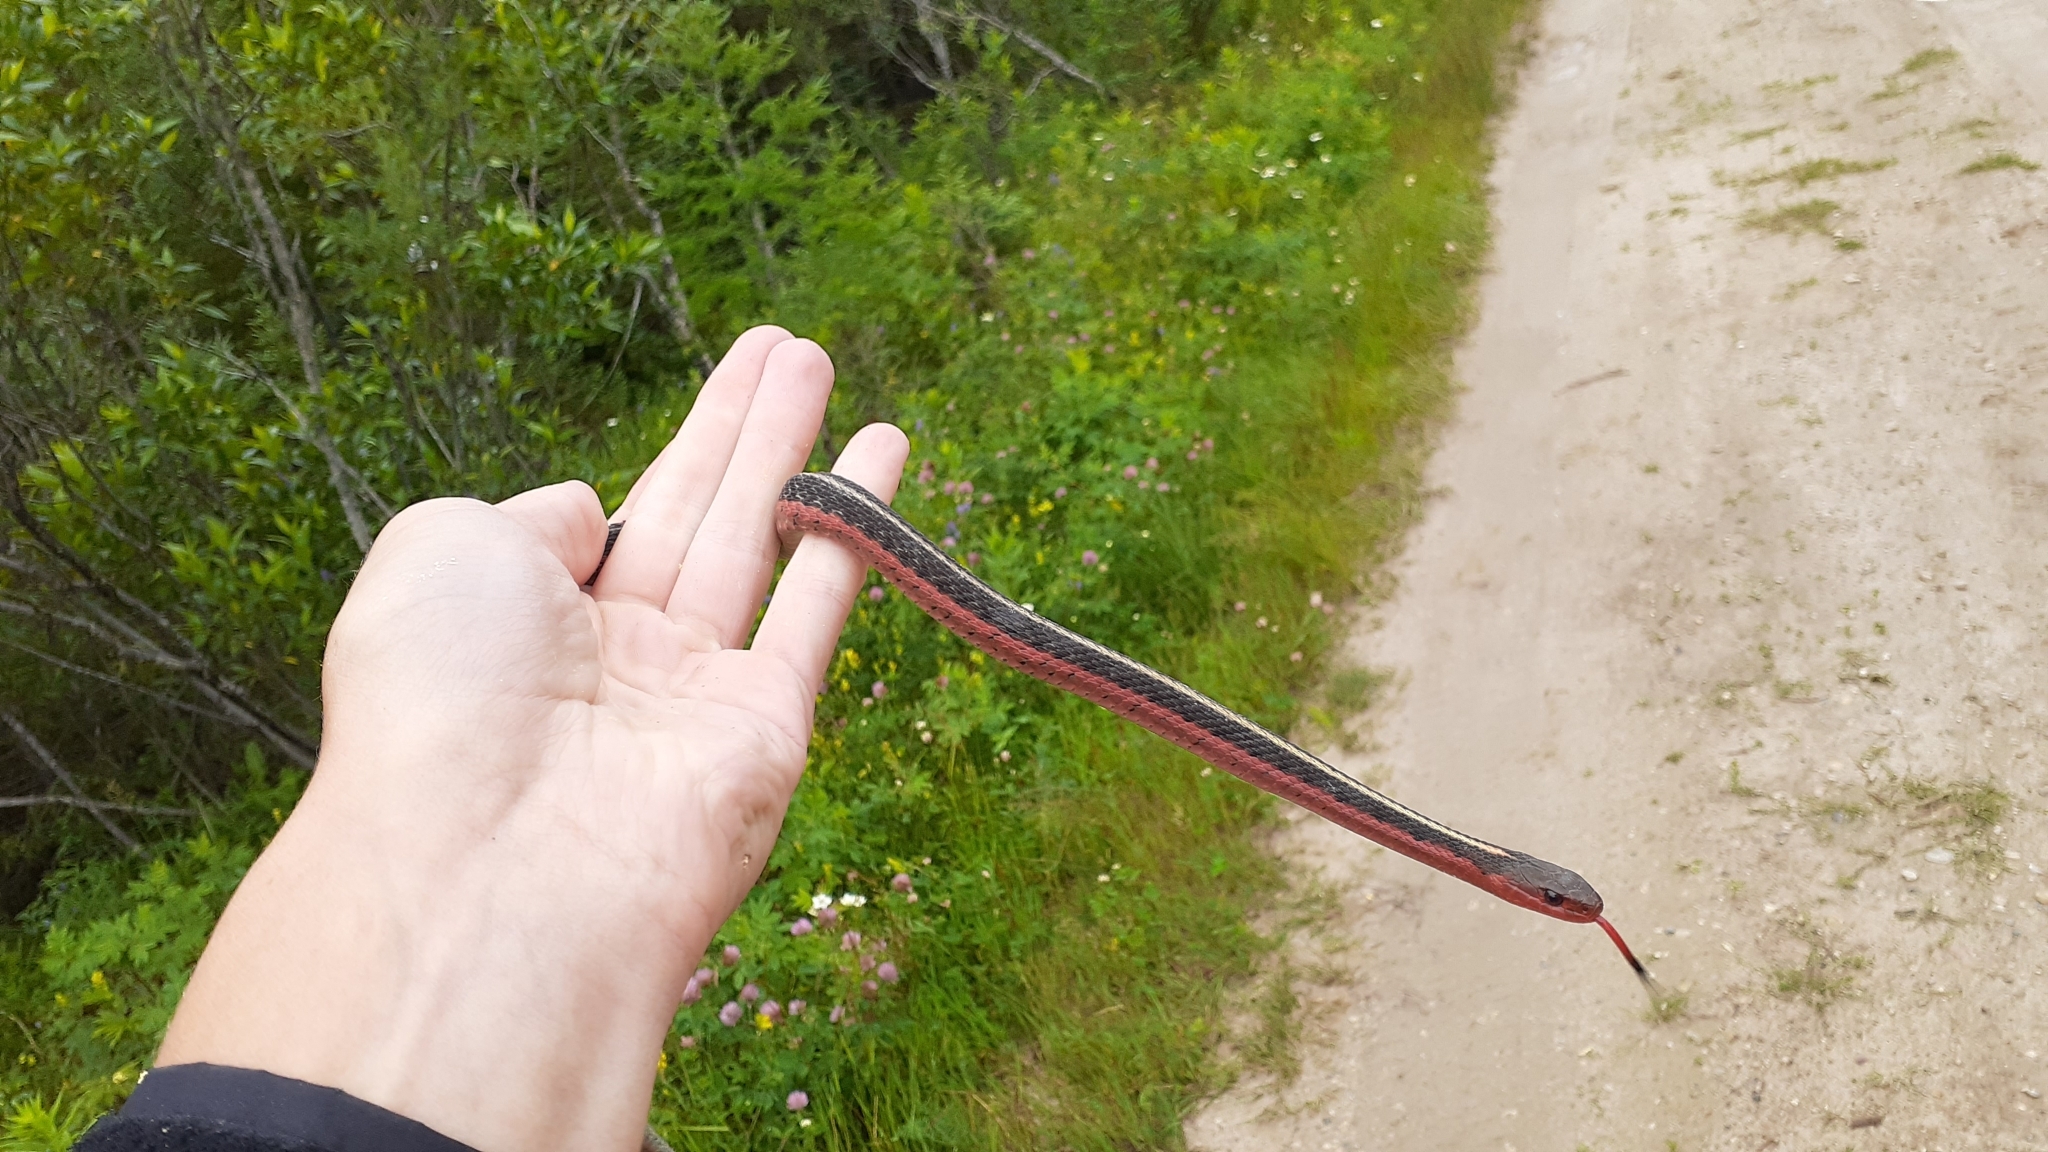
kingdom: Animalia
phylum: Chordata
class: Squamata
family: Colubridae
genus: Thamnophis
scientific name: Thamnophis sirtalis
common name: Common garter snake
